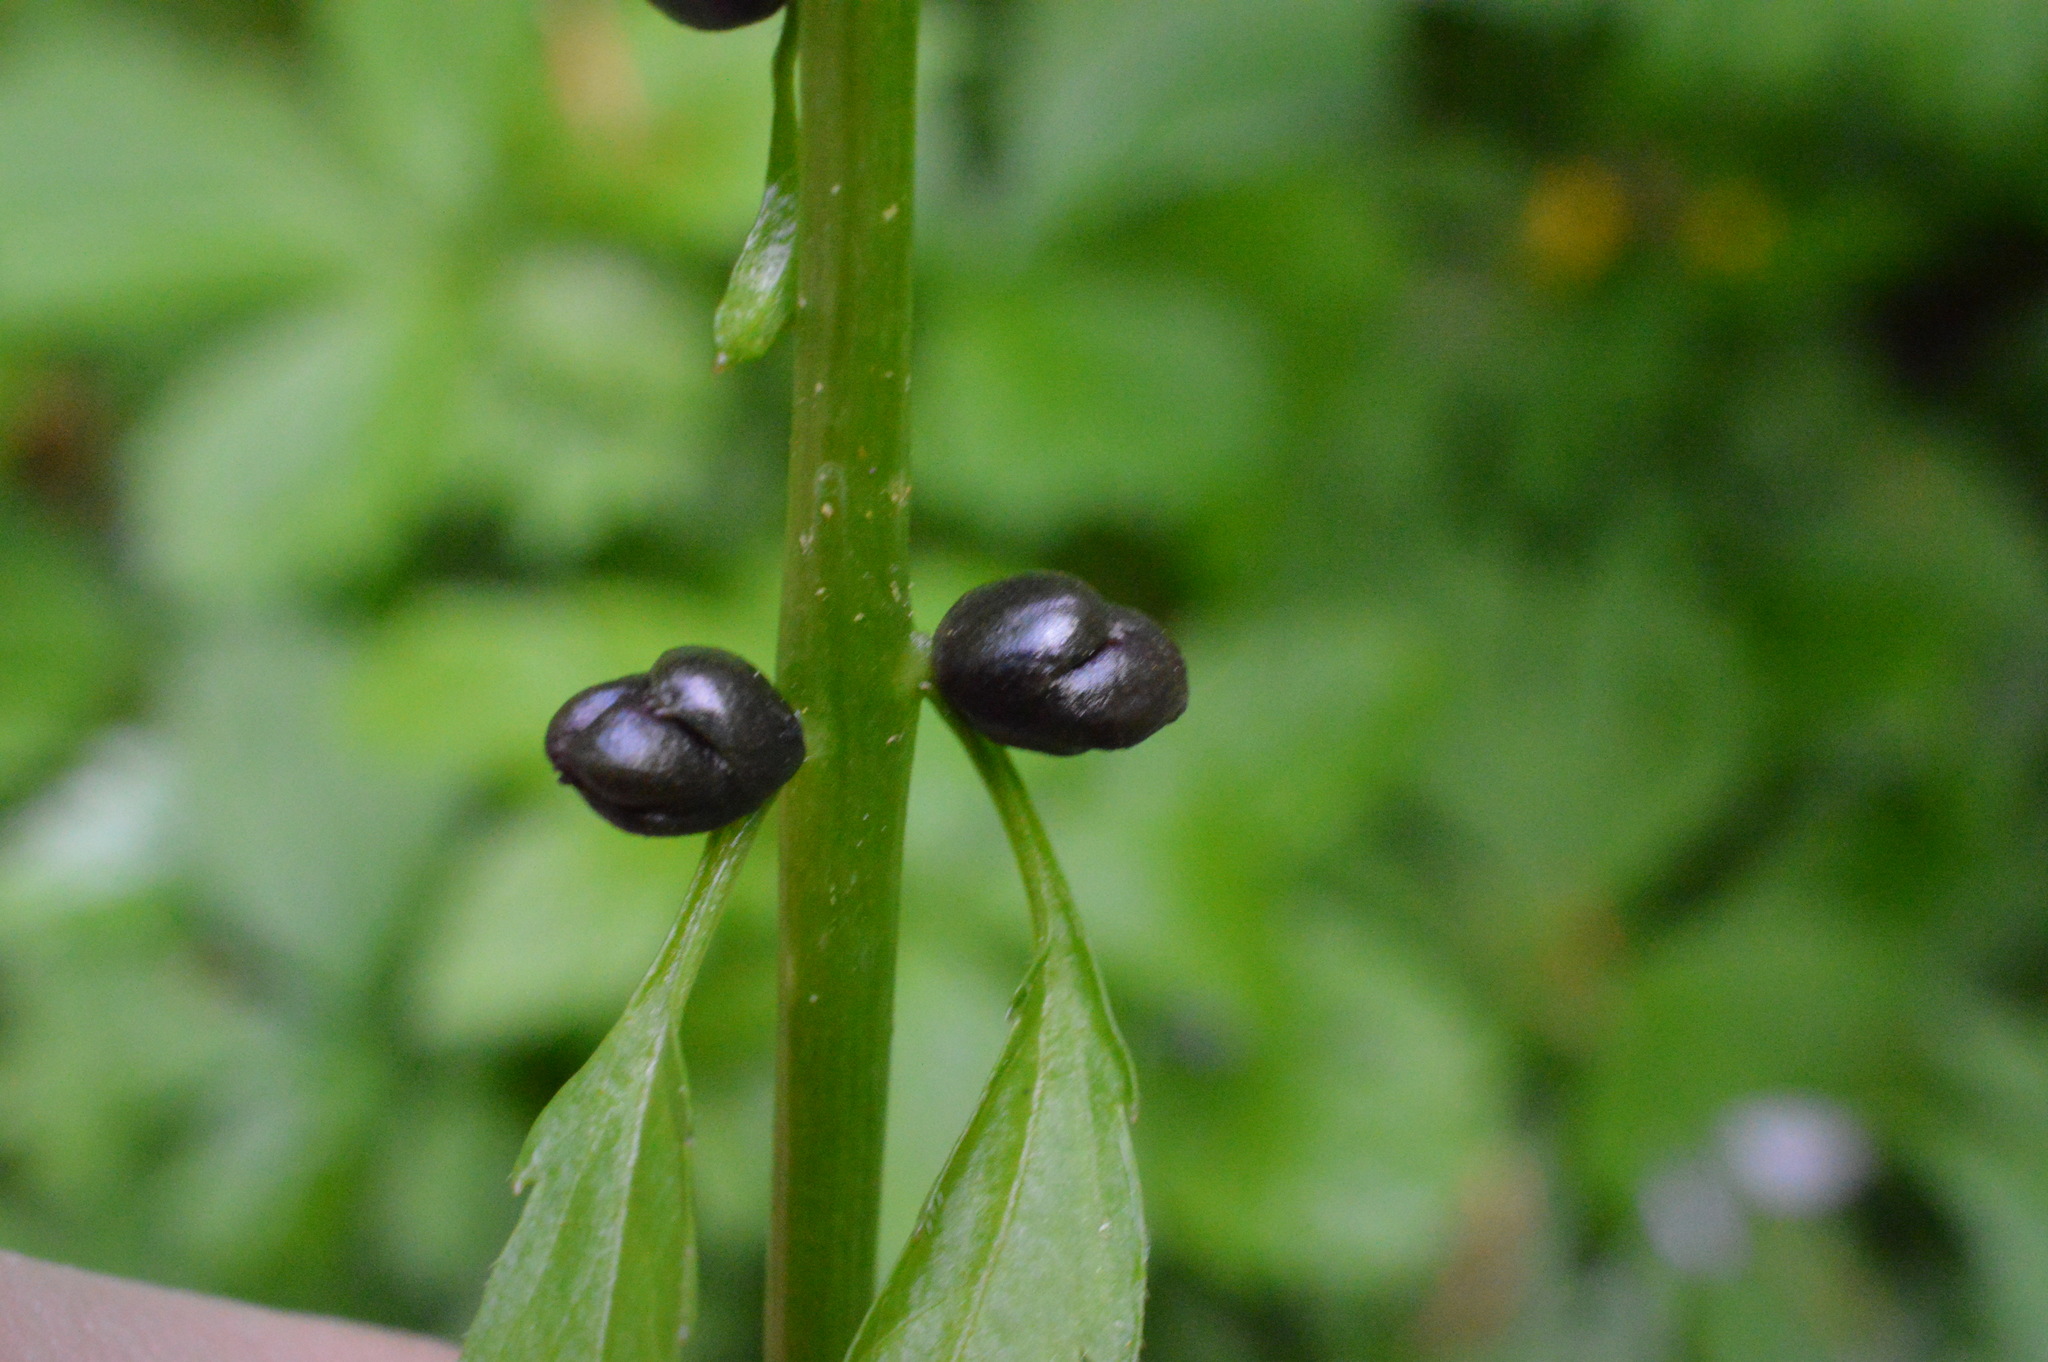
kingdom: Plantae
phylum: Tracheophyta
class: Magnoliopsida
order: Brassicales
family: Brassicaceae
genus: Cardamine
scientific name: Cardamine bulbifera
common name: Coralroot bittercress
